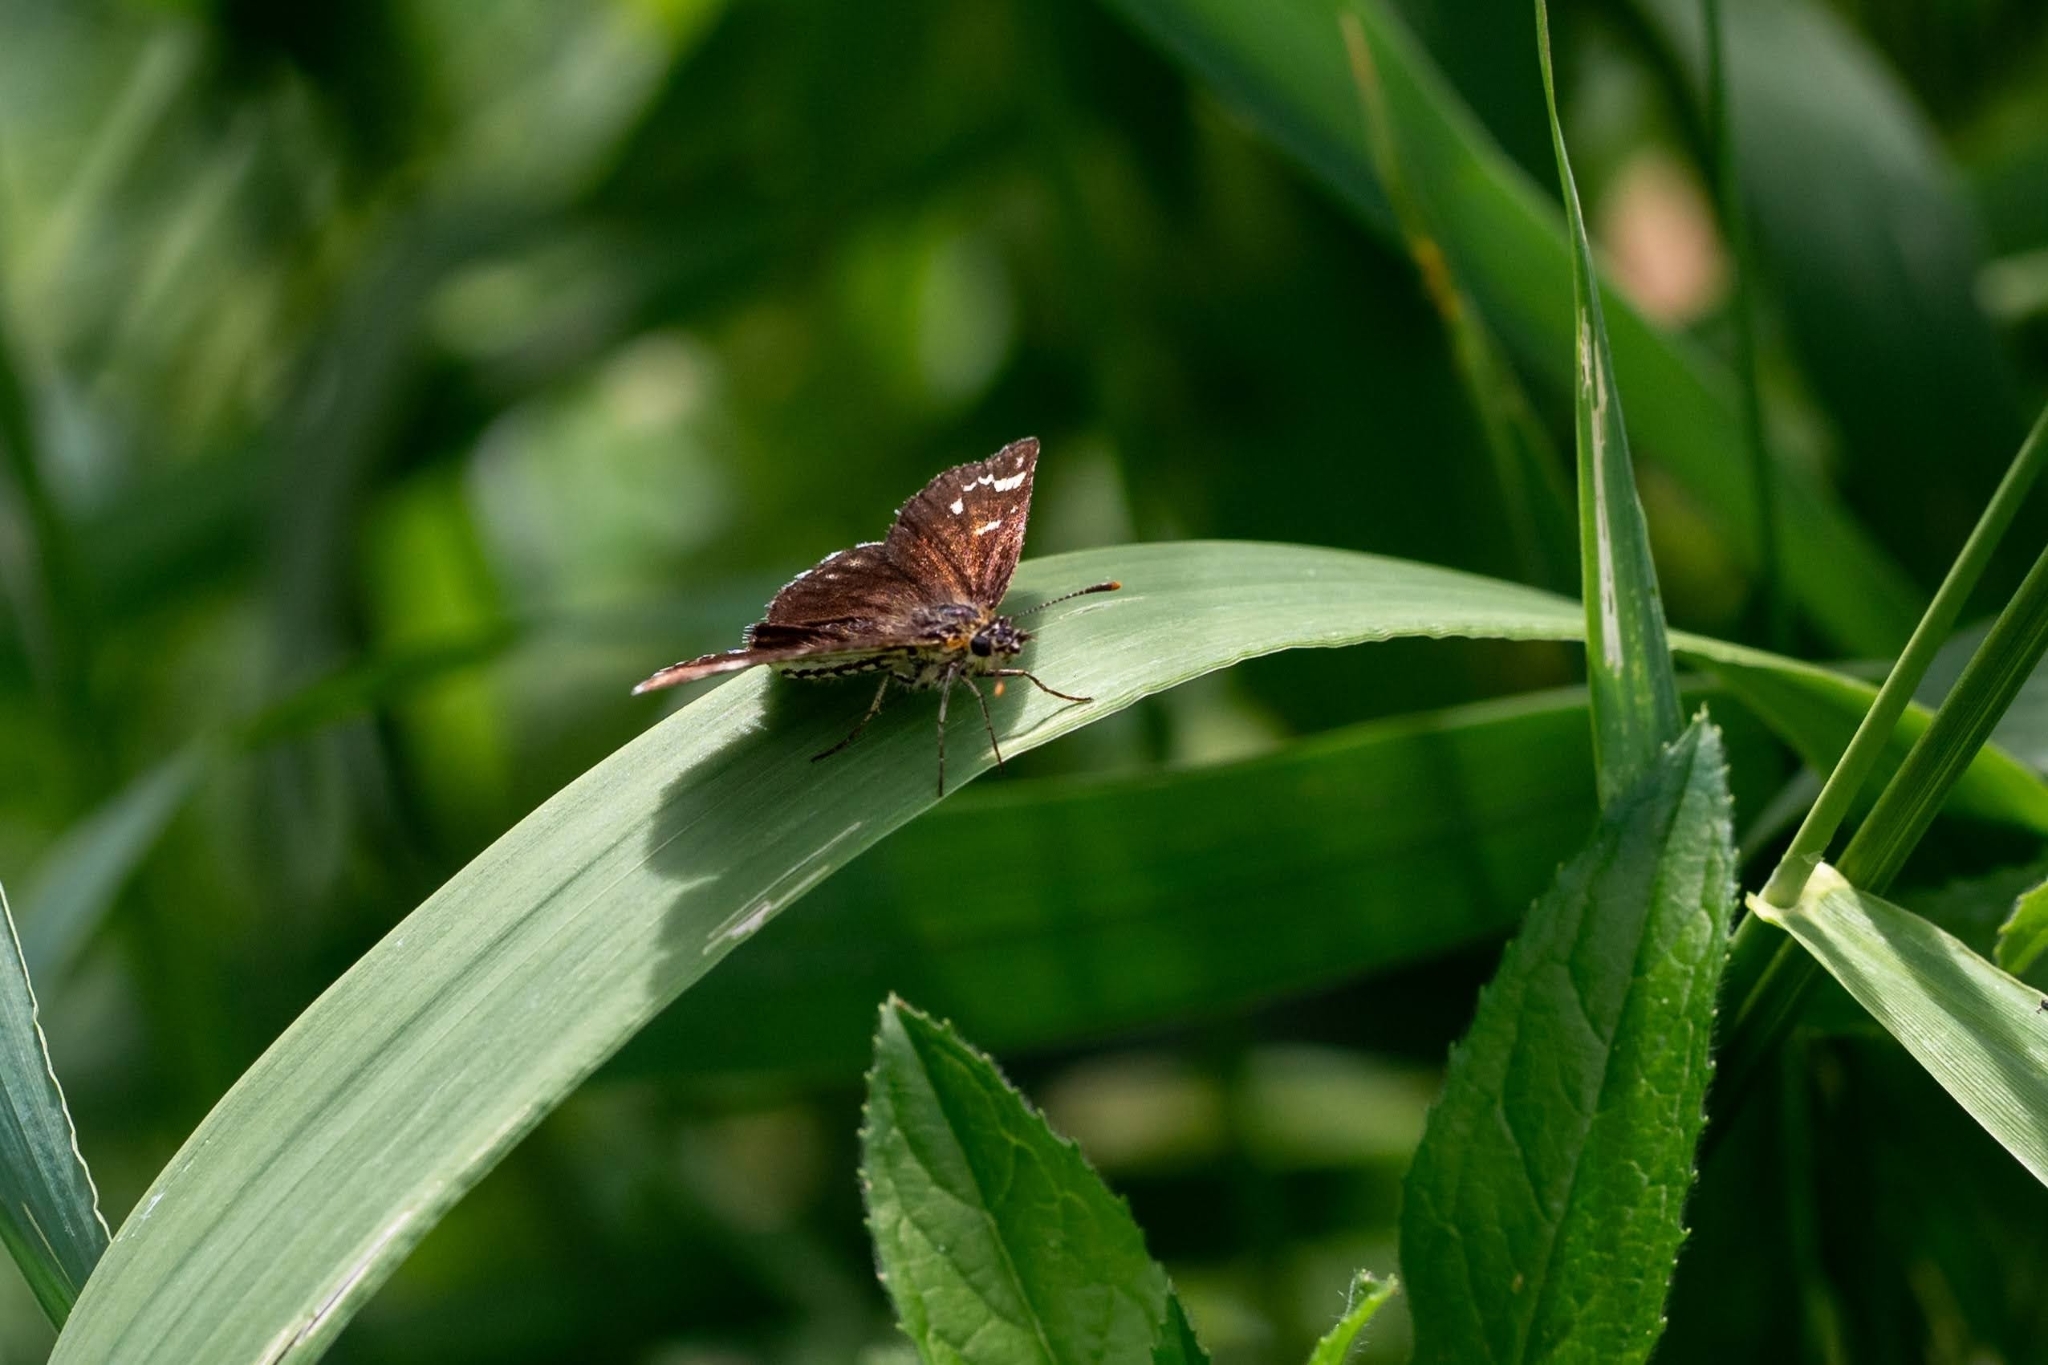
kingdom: Animalia
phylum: Arthropoda
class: Insecta
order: Lepidoptera
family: Hesperiidae
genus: Heteropterus
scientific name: Heteropterus morpheus
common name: Large chequered skipper
